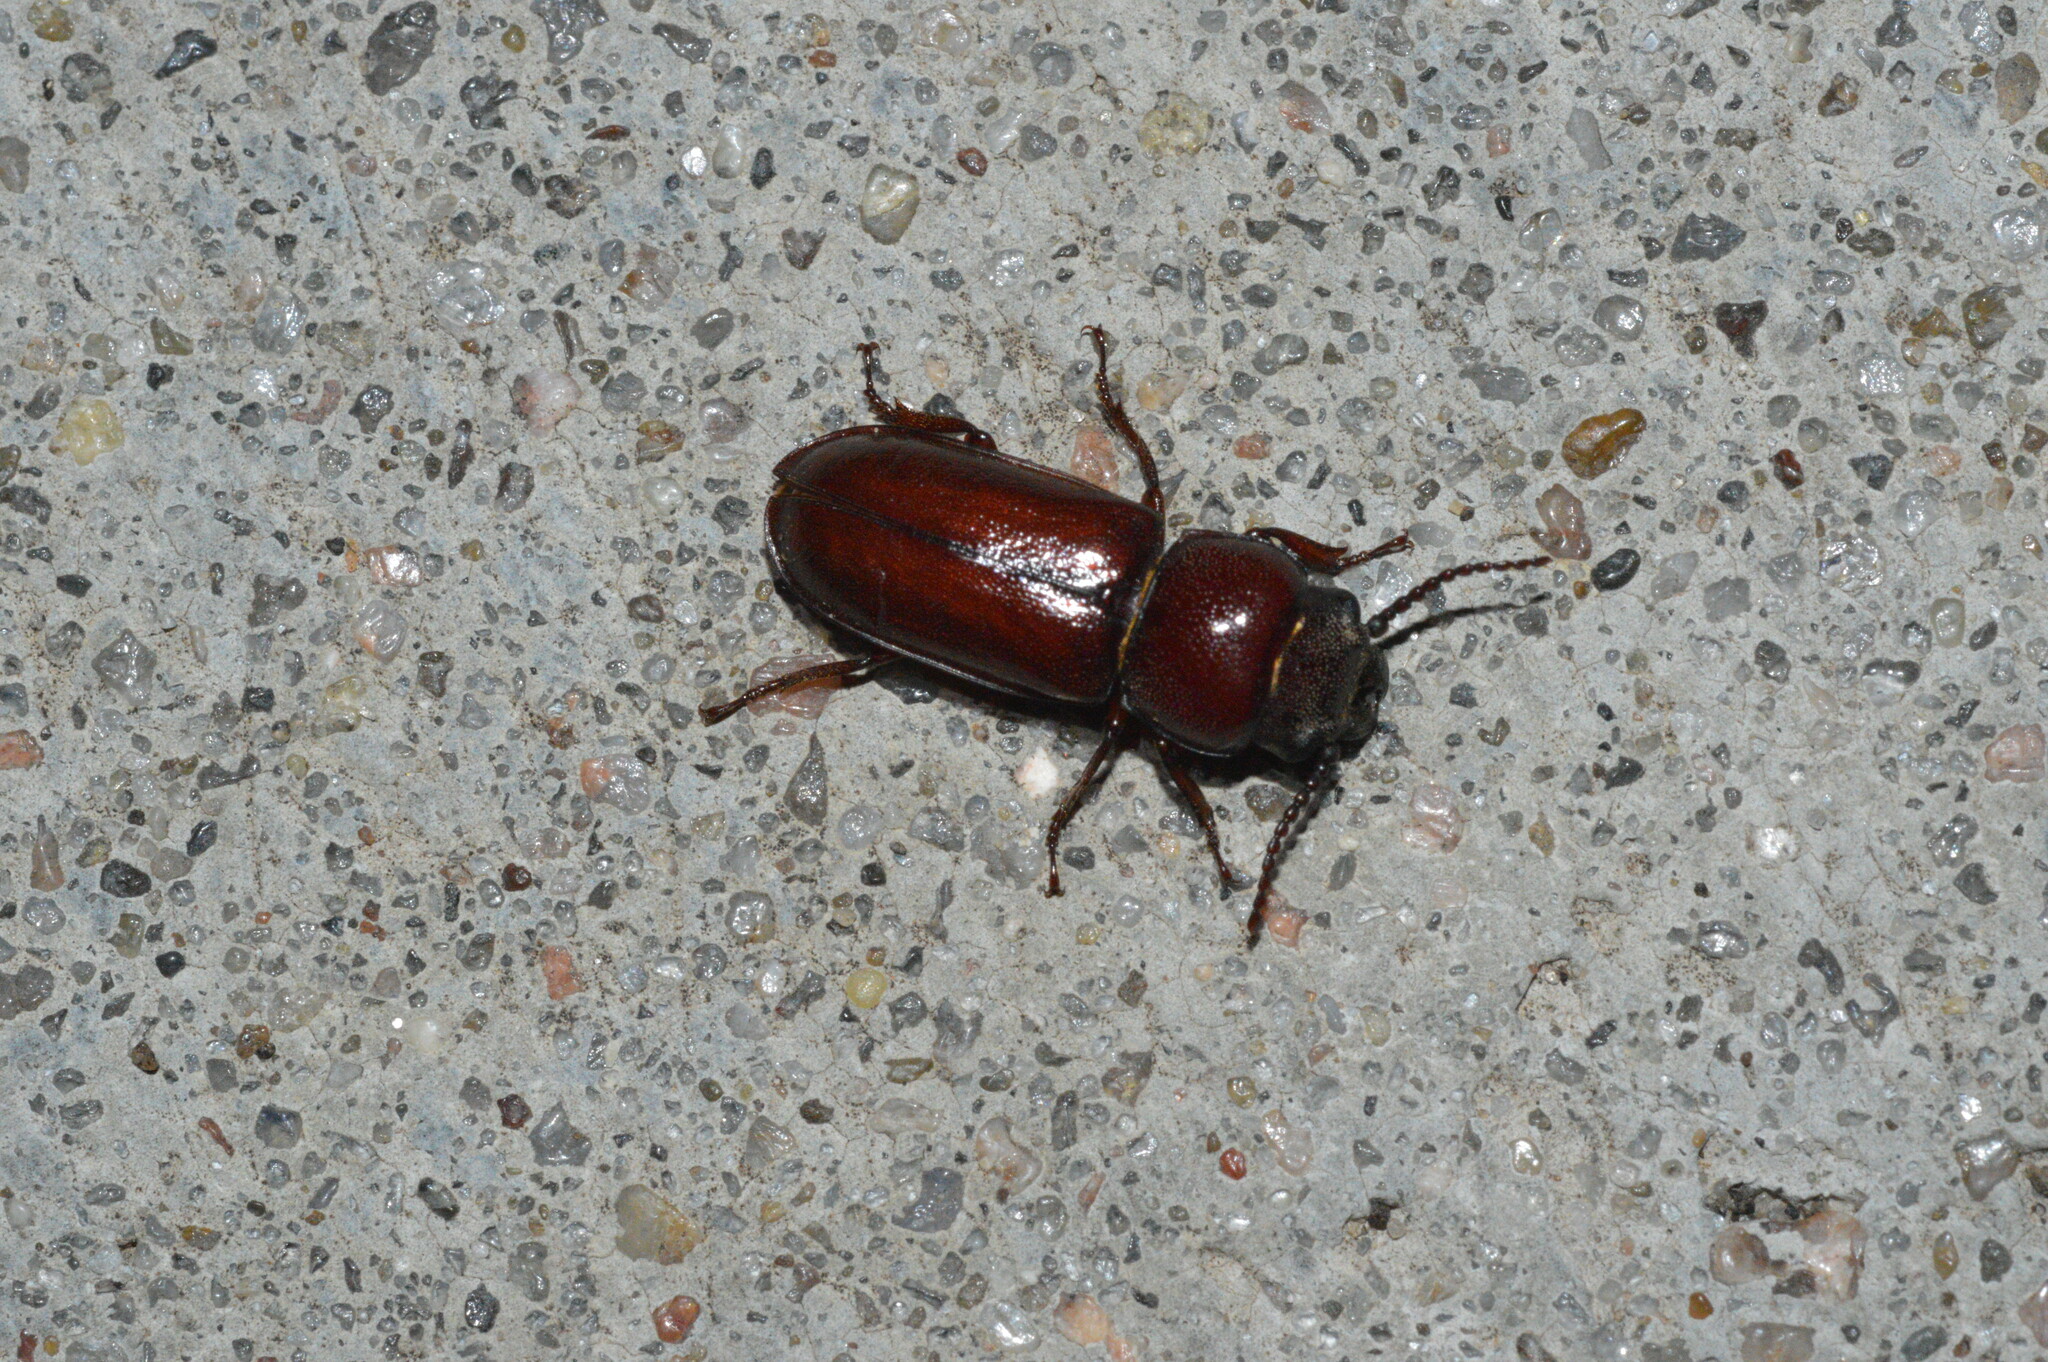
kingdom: Animalia
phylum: Arthropoda
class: Insecta
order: Coleoptera
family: Cerambycidae
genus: Neandra
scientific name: Neandra brunnea
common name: Pole borer
